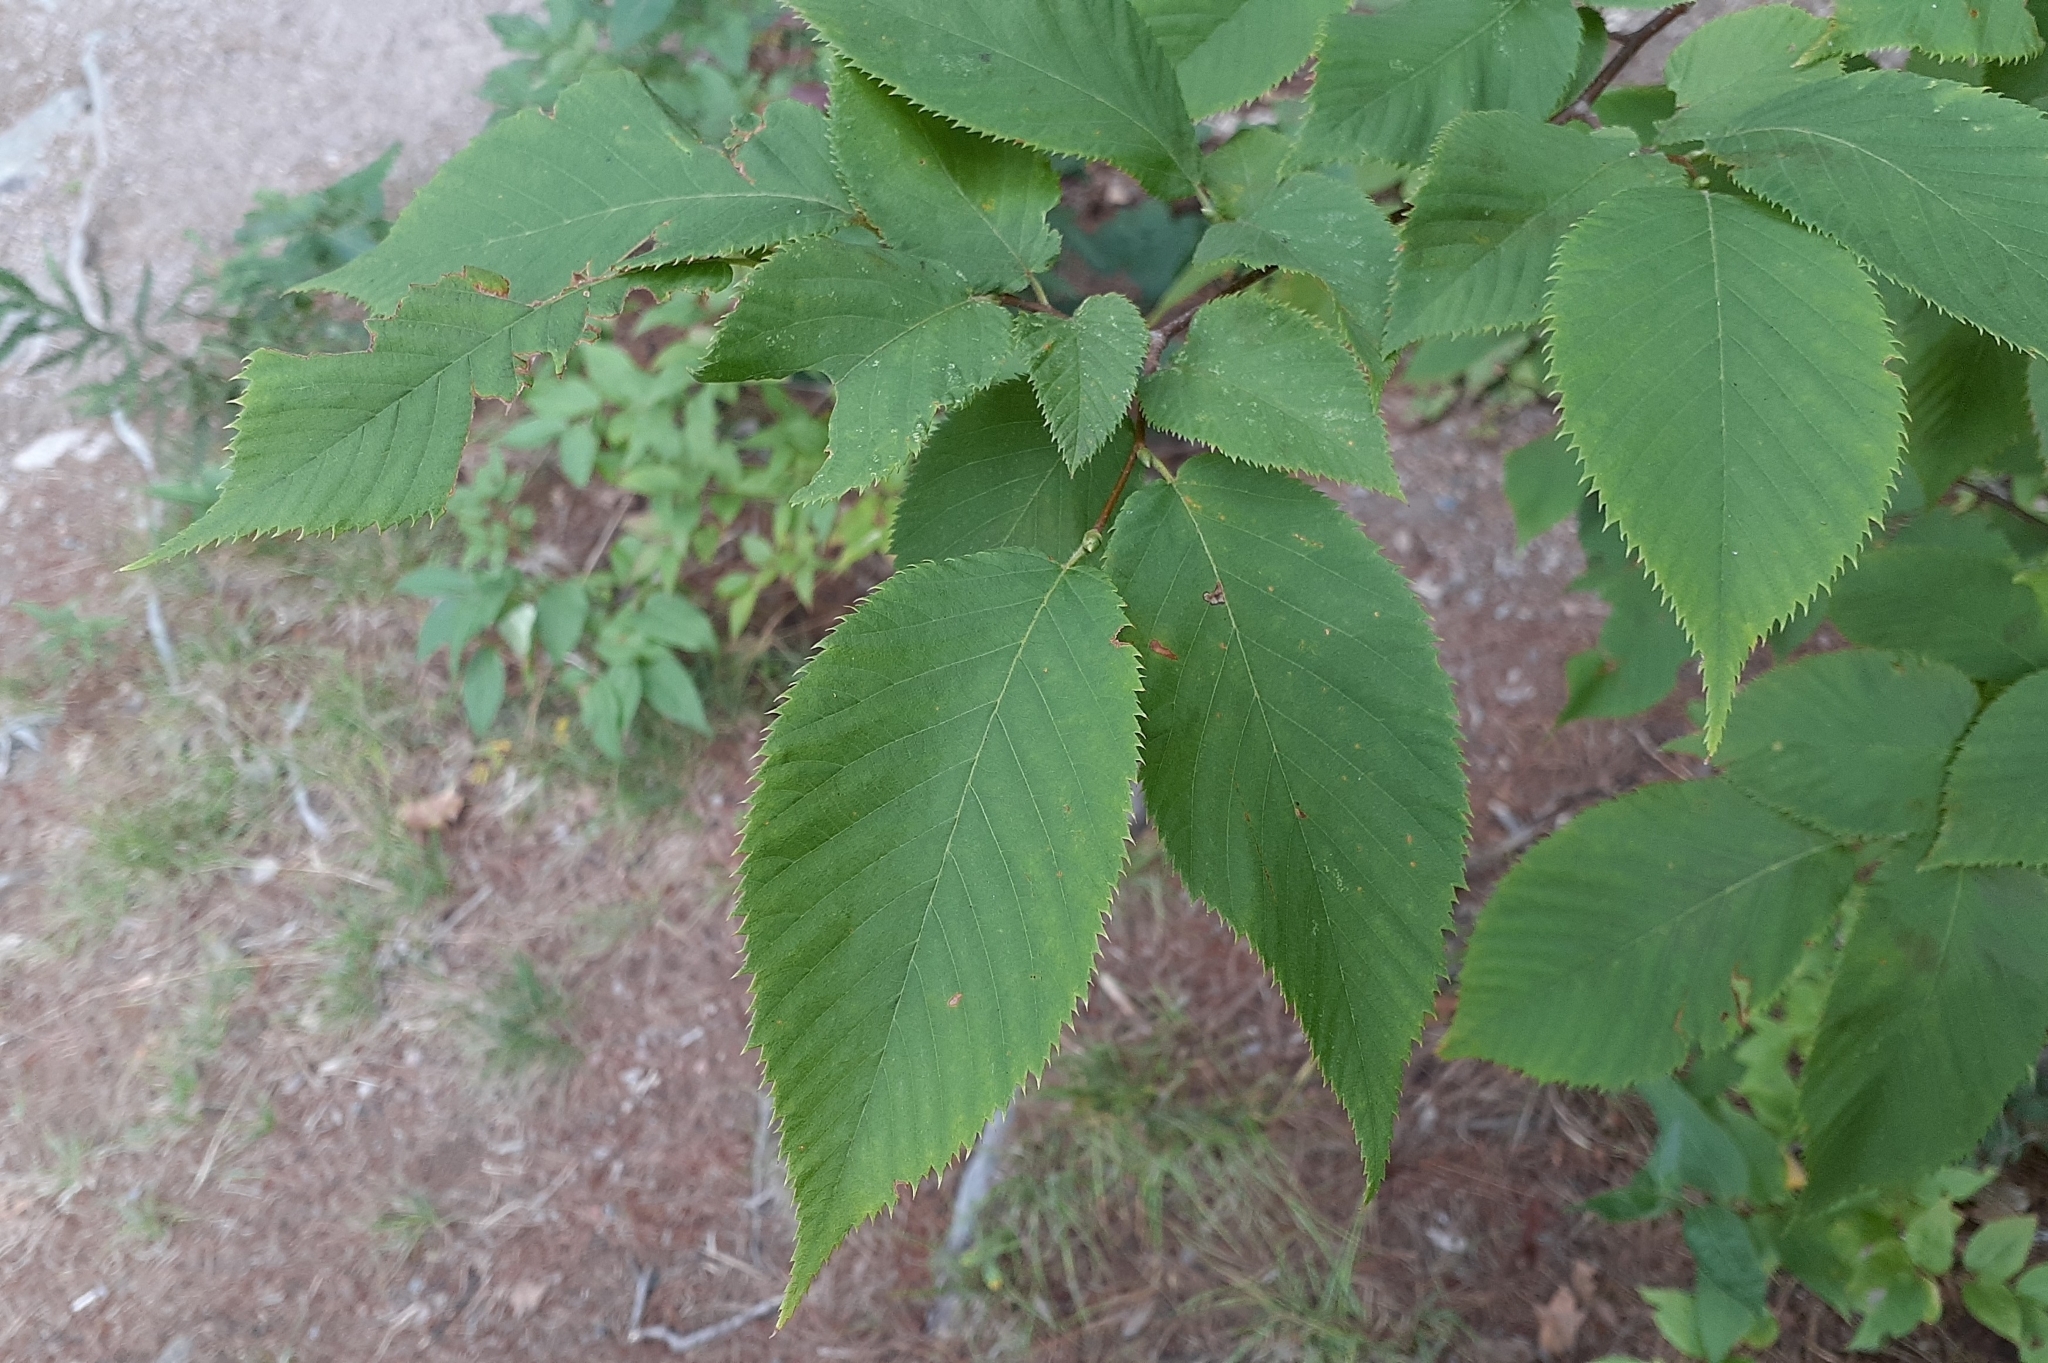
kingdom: Plantae
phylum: Tracheophyta
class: Magnoliopsida
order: Fagales
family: Betulaceae
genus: Ostrya
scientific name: Ostrya virginiana
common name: Ironwood
